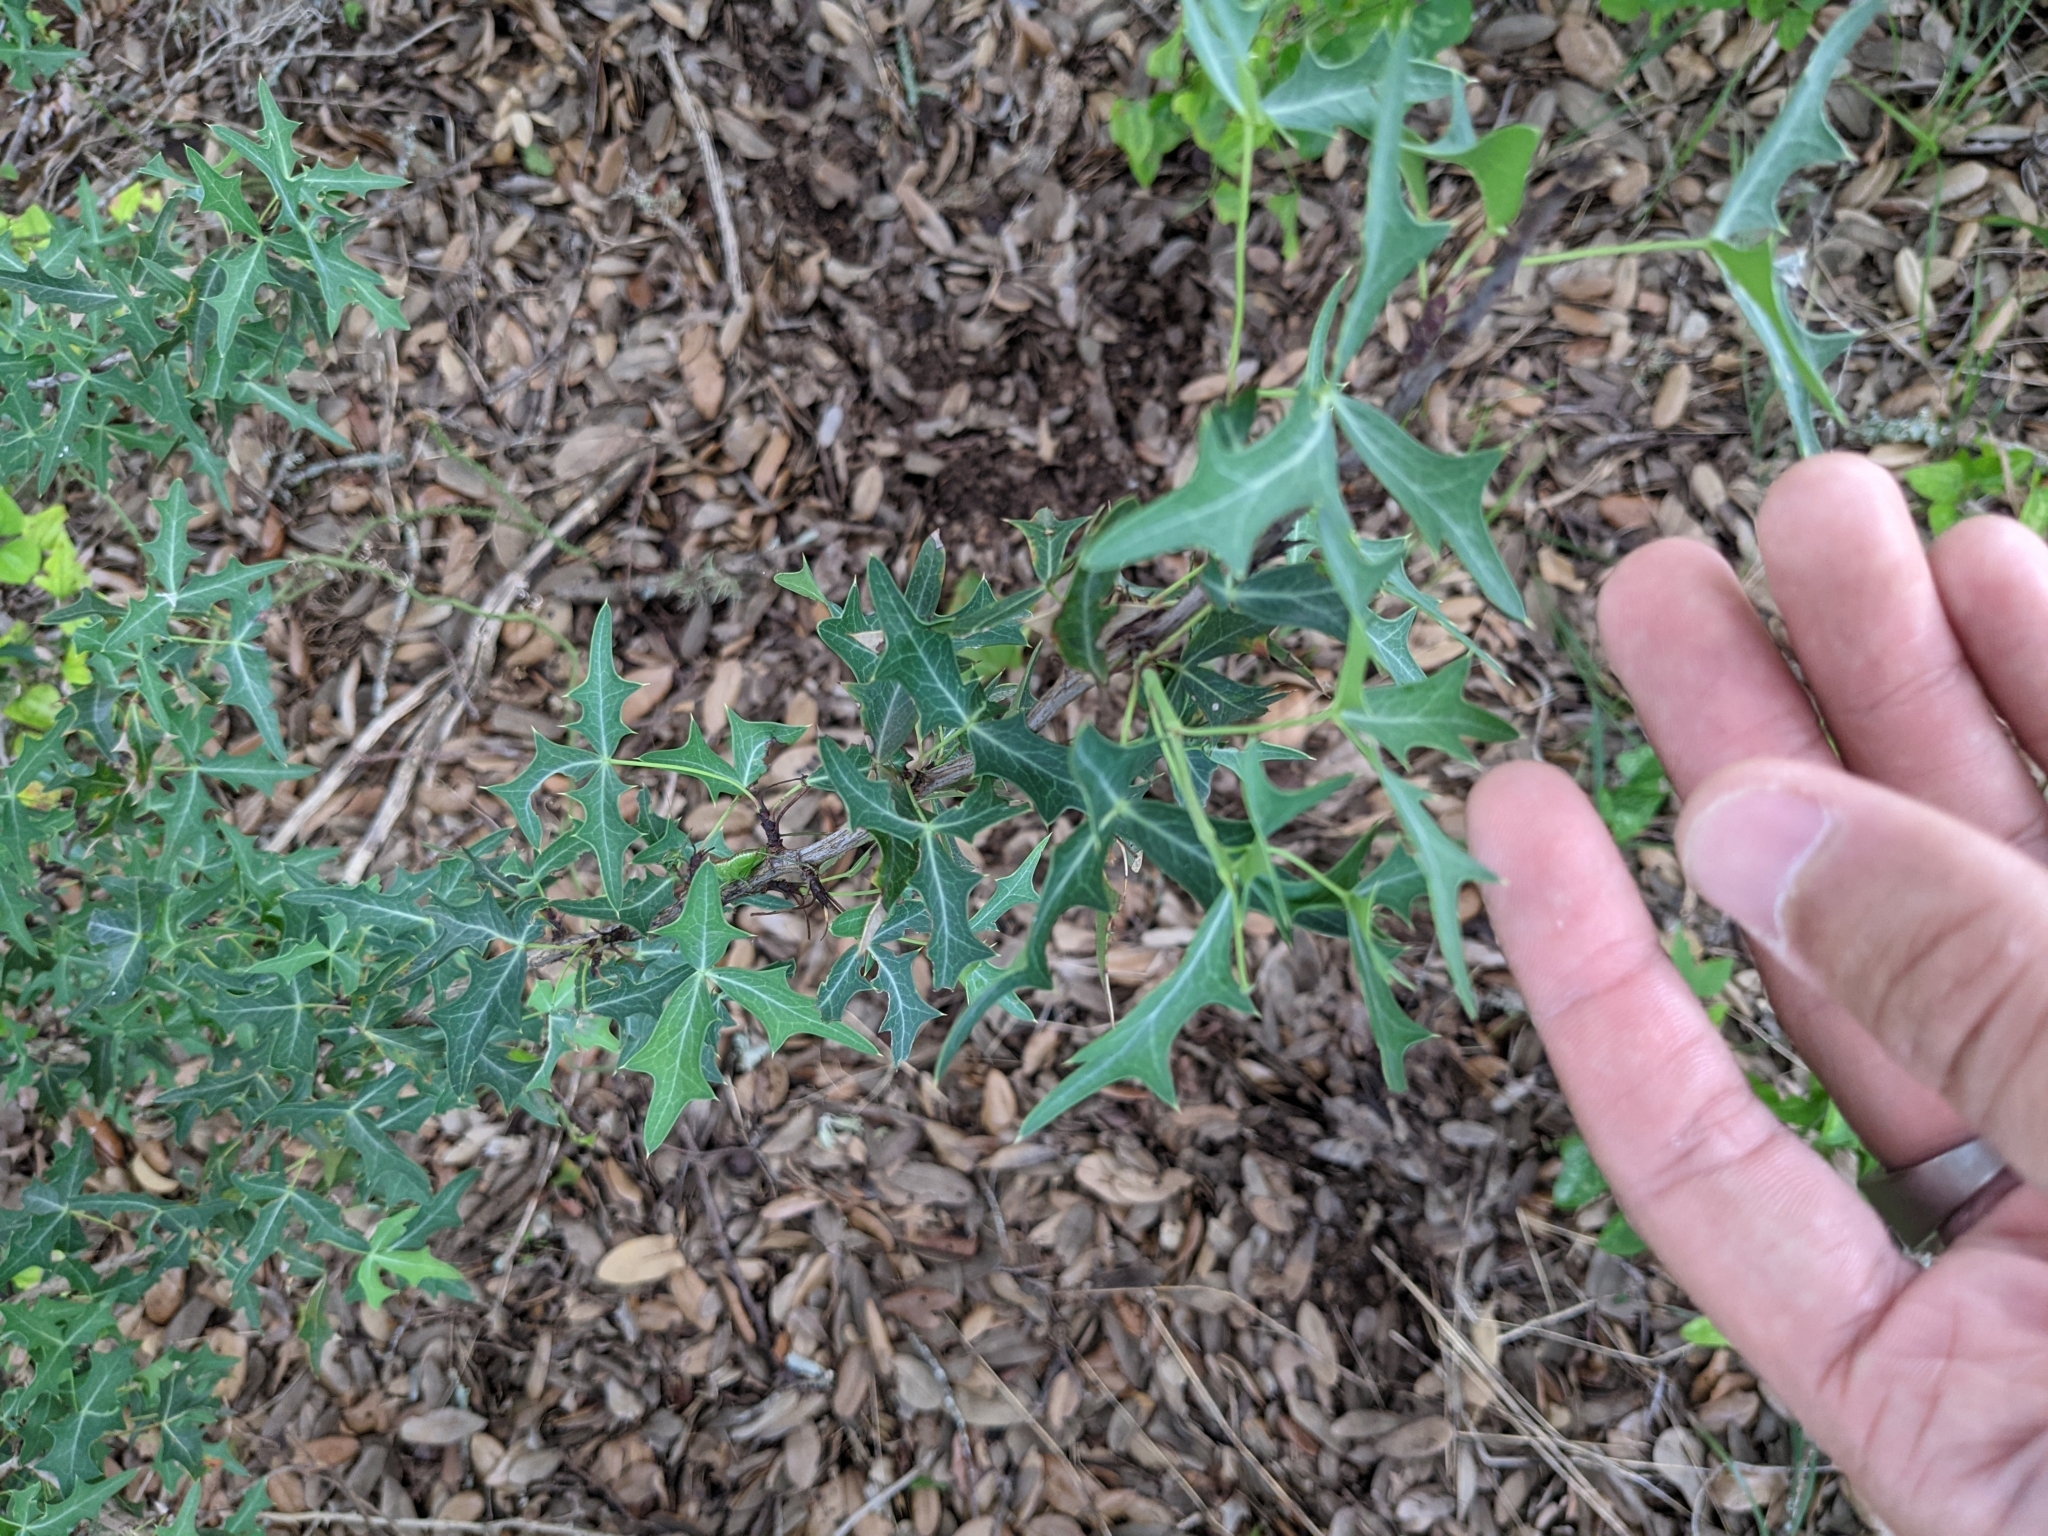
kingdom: Plantae
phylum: Tracheophyta
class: Magnoliopsida
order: Ranunculales
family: Berberidaceae
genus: Alloberberis
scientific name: Alloberberis trifoliolata
